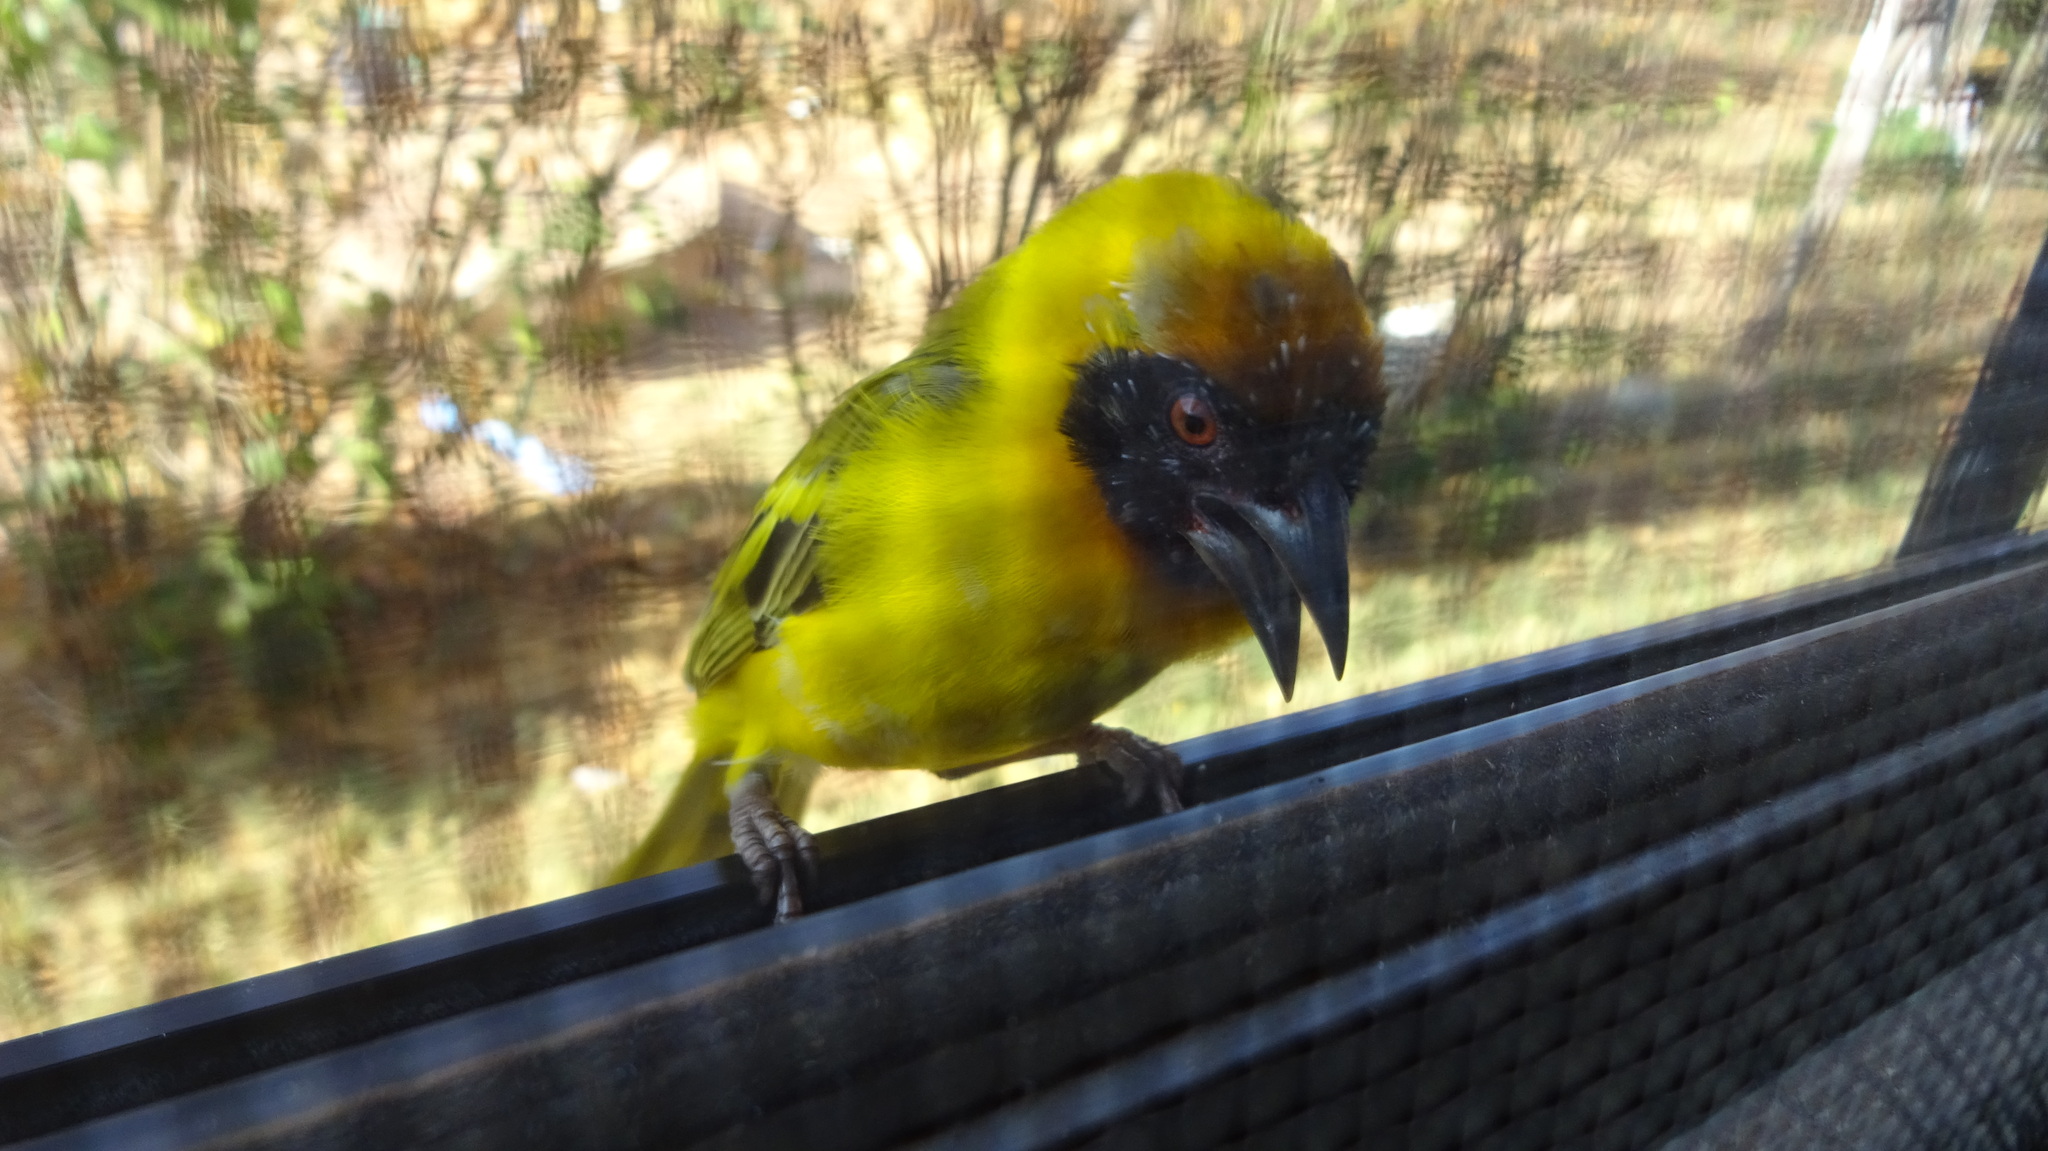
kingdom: Animalia
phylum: Chordata
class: Aves
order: Passeriformes
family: Ploceidae
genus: Ploceus
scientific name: Ploceus vitellinus
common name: Vitelline masked weaver
